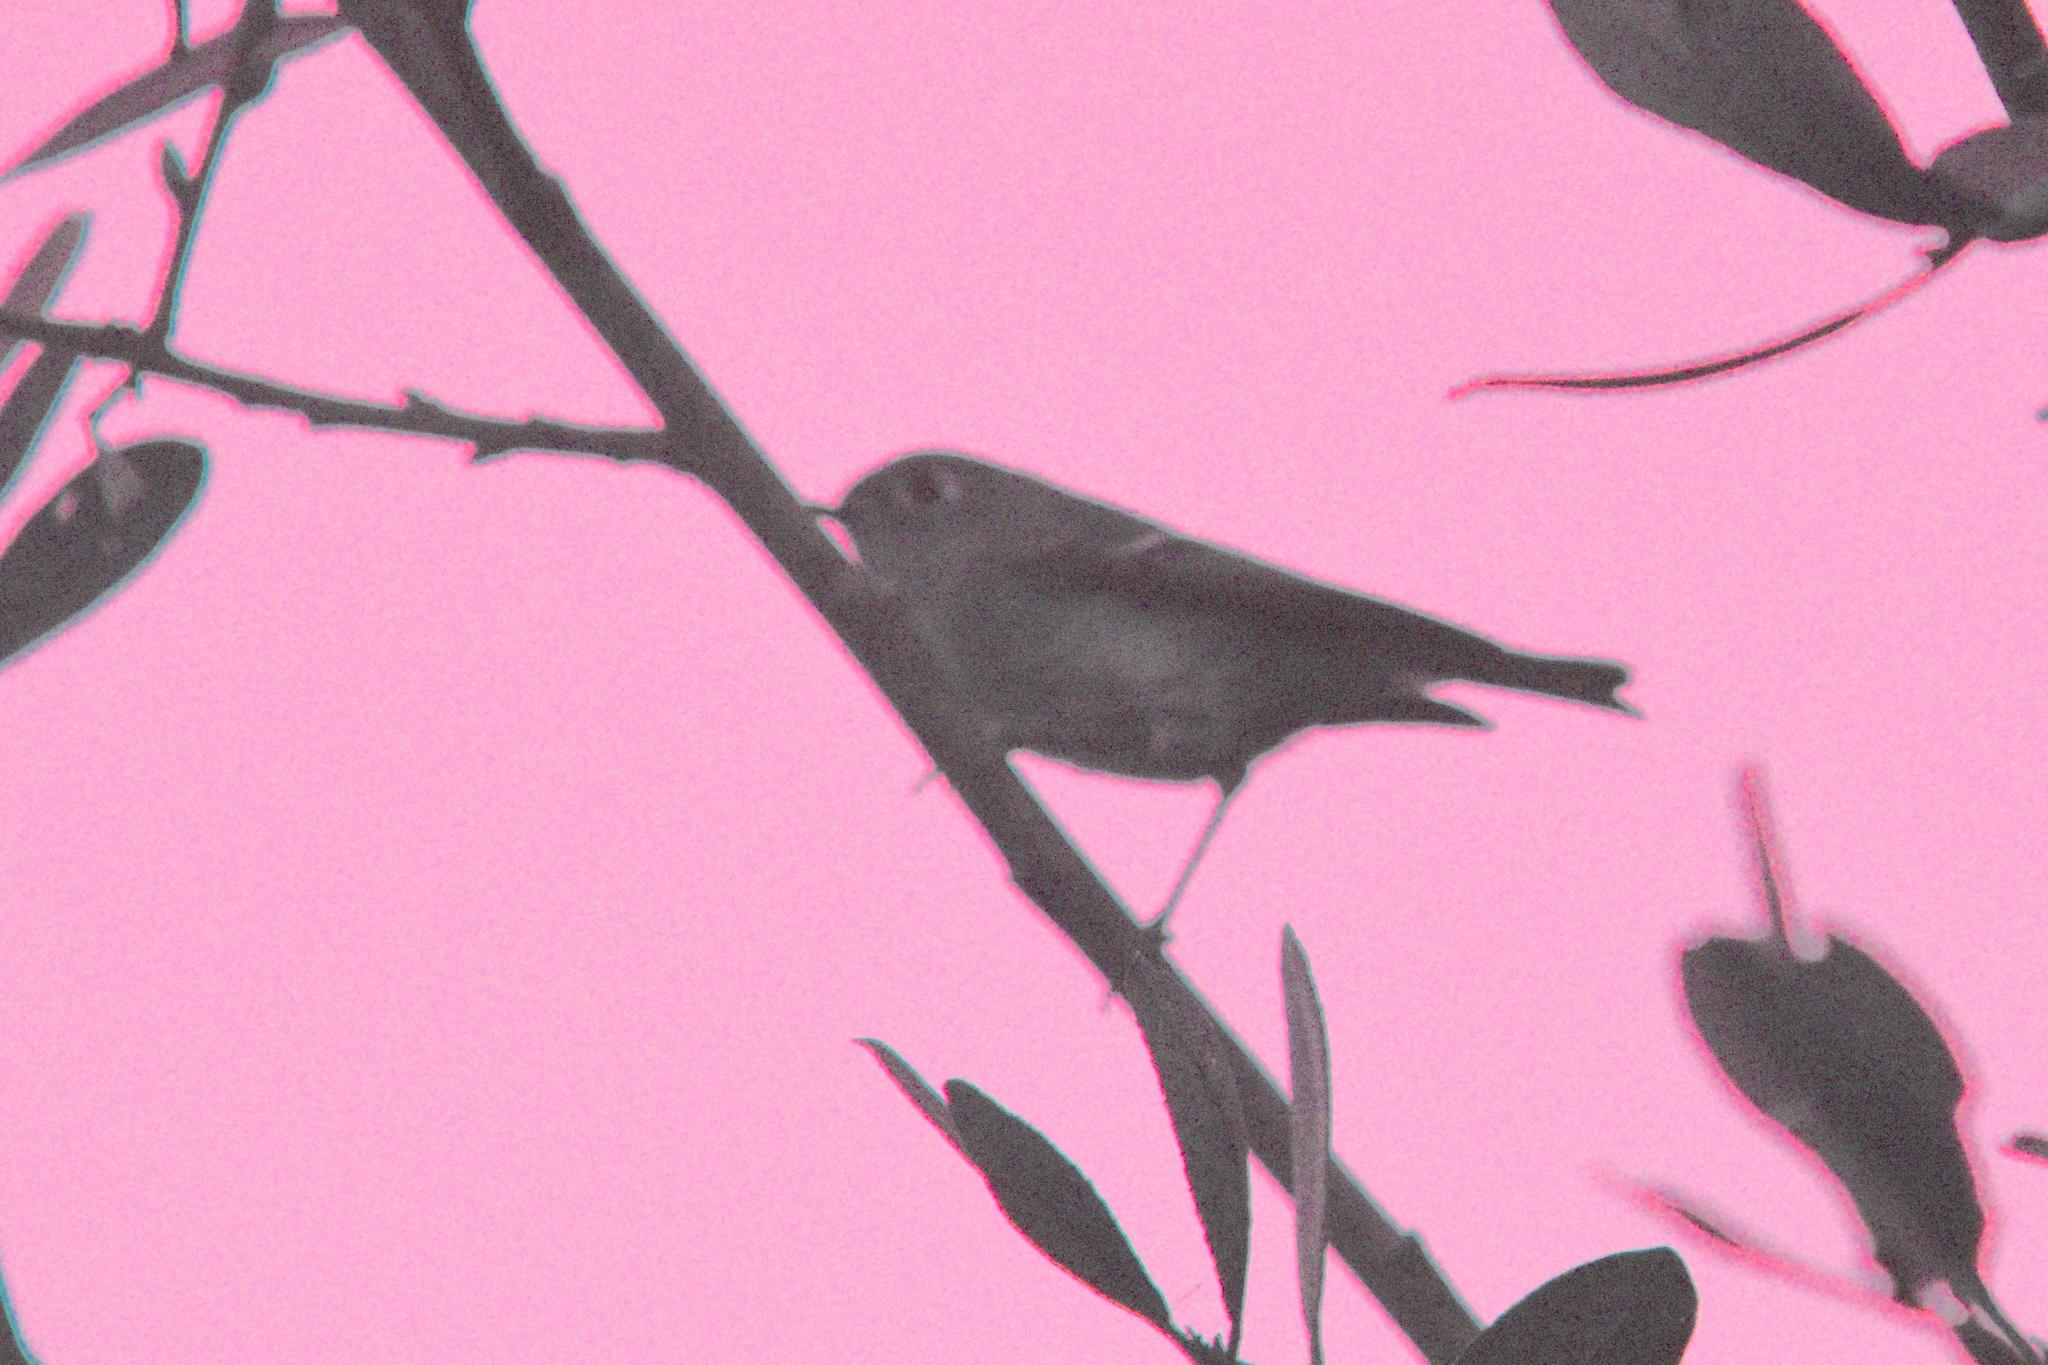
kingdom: Animalia
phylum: Chordata
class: Aves
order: Passeriformes
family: Regulidae
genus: Regulus
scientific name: Regulus calendula
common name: Ruby-crowned kinglet
